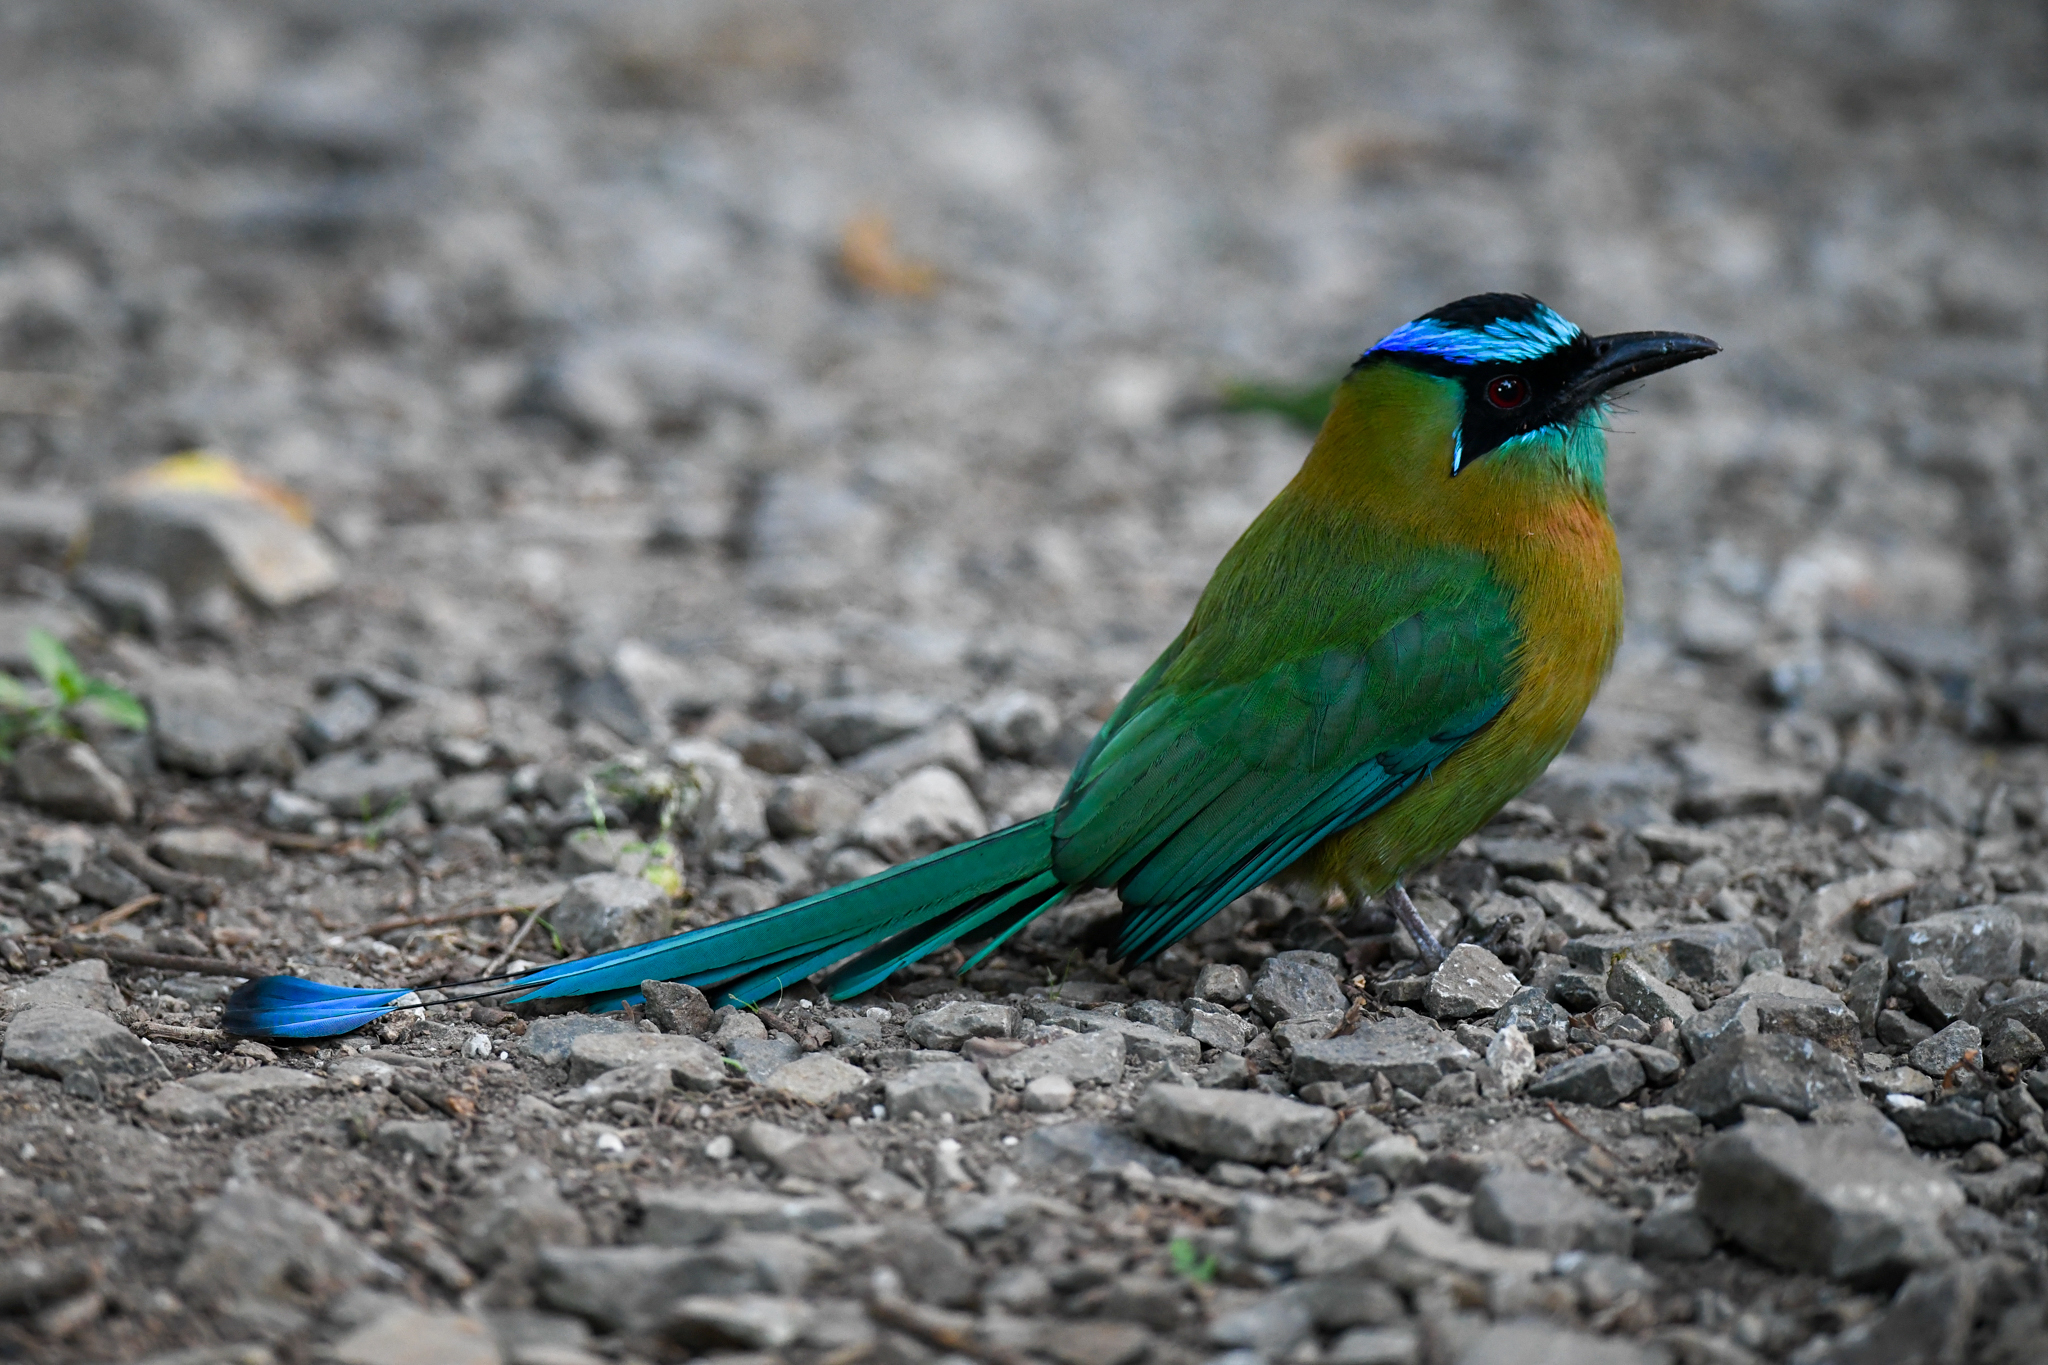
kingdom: Animalia
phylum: Chordata
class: Aves
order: Coraciiformes
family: Momotidae
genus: Momotus
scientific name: Momotus lessonii
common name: Lesson's motmot
